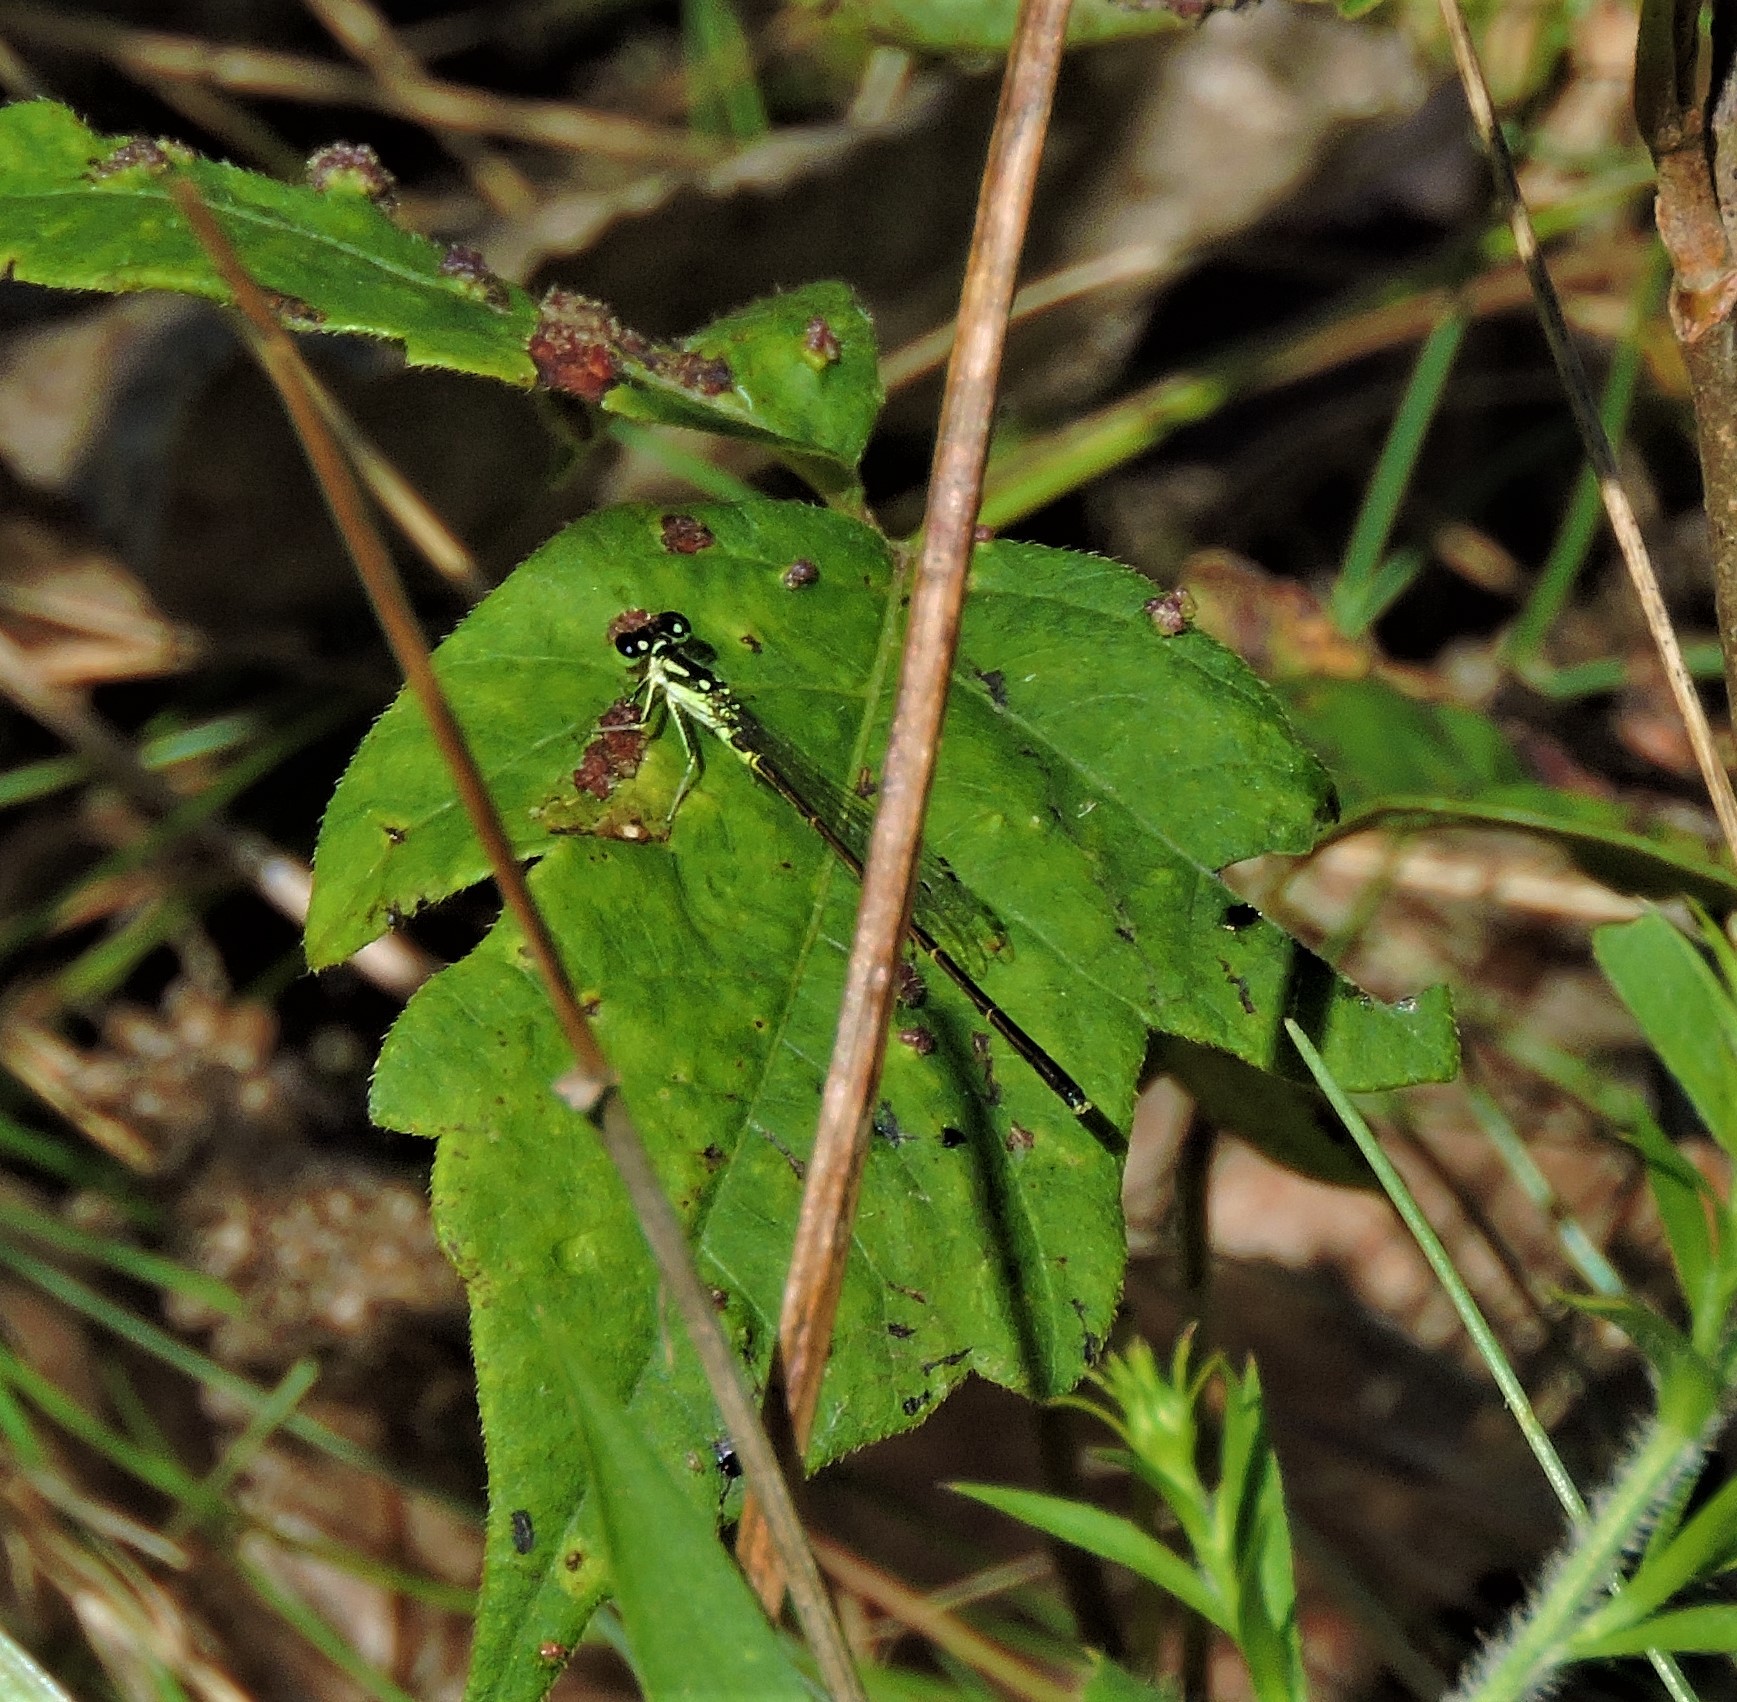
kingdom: Animalia
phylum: Arthropoda
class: Insecta
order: Odonata
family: Coenagrionidae
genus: Ischnura
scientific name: Ischnura posita
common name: Fragile forktail
